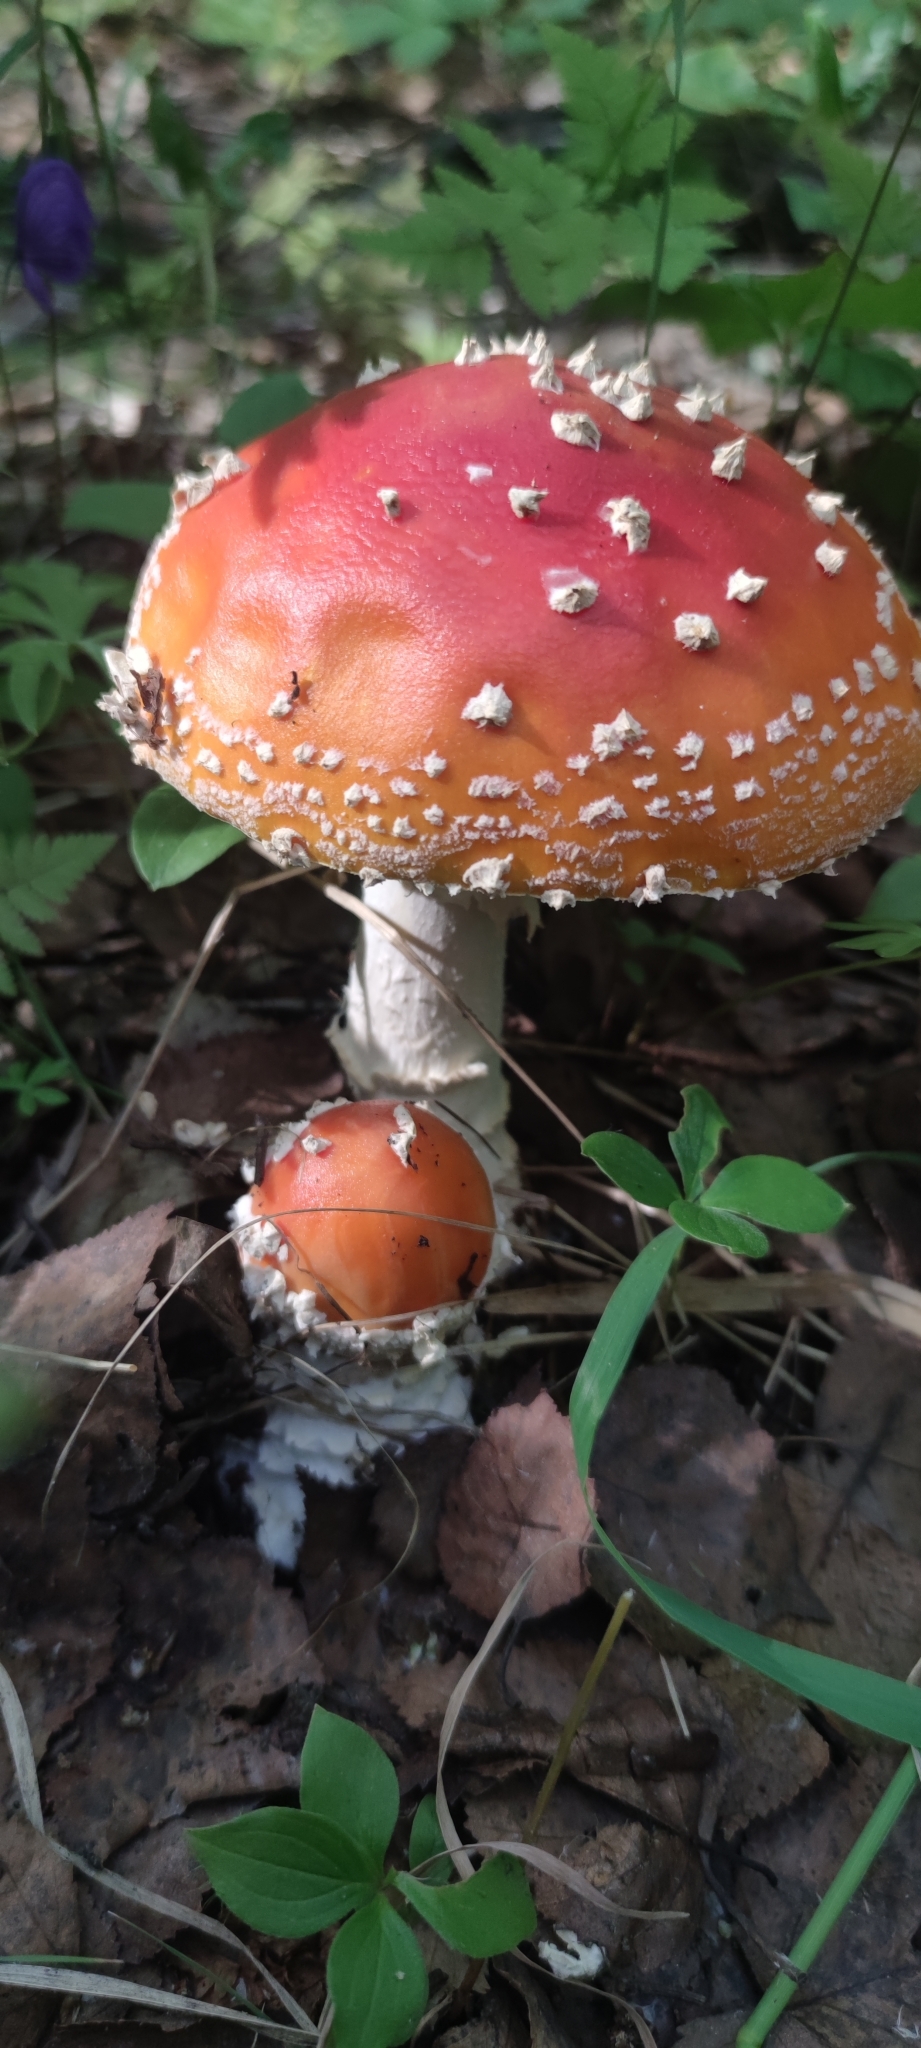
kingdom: Fungi
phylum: Basidiomycota
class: Agaricomycetes
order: Agaricales
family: Amanitaceae
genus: Amanita
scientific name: Amanita muscaria
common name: Fly agaric
